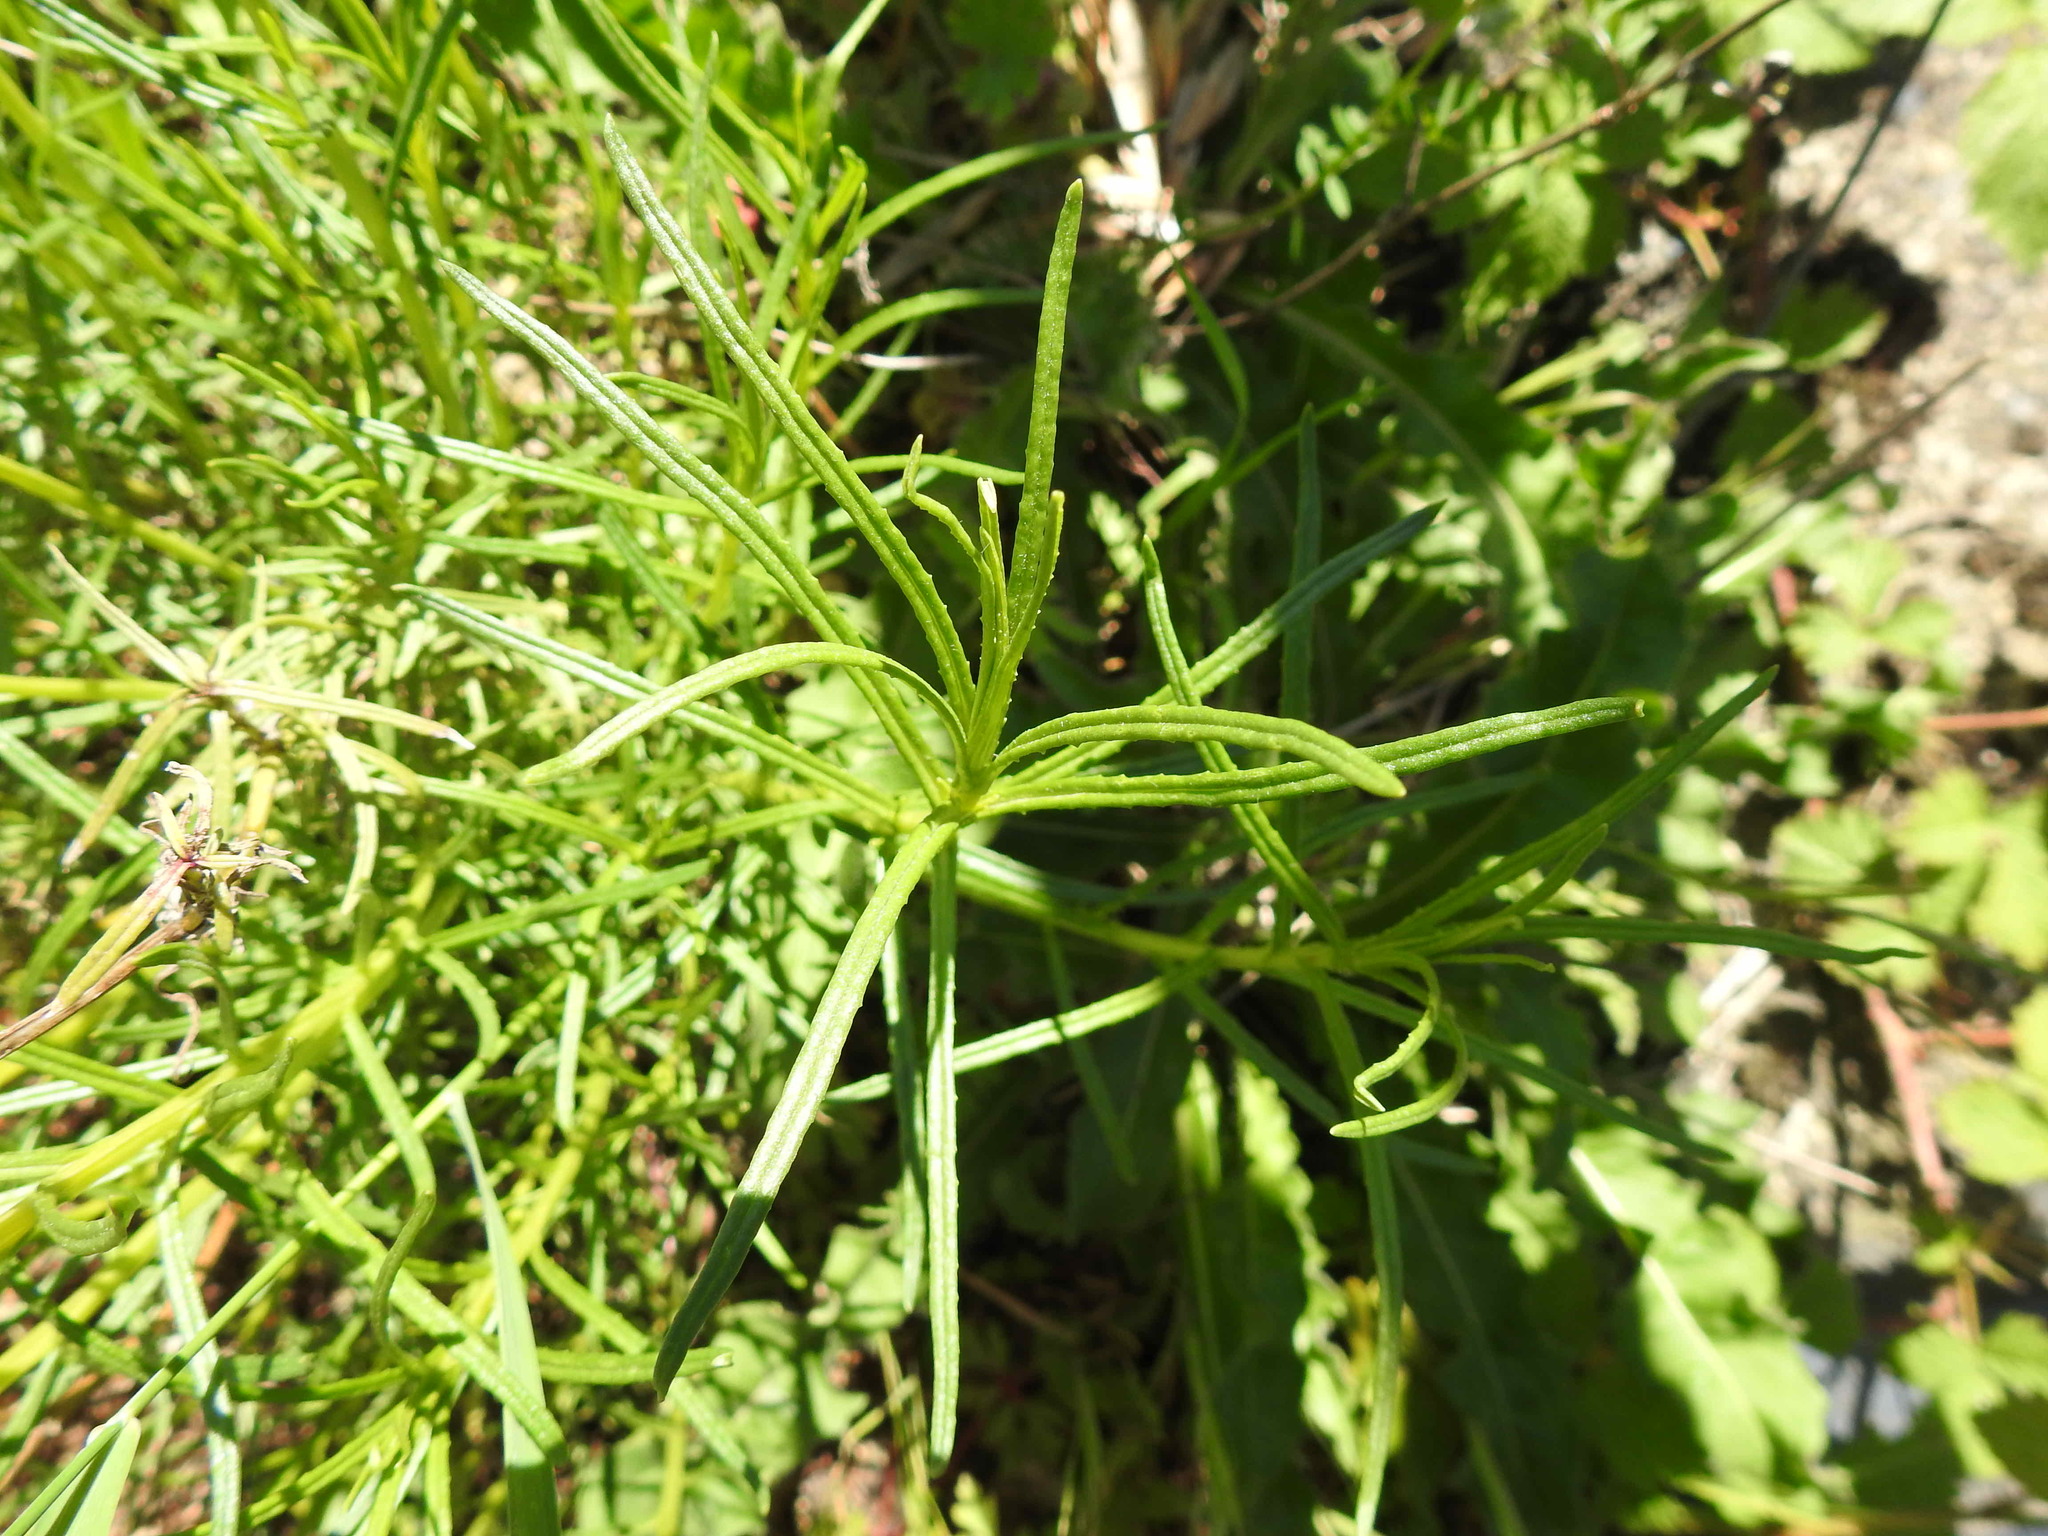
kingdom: Plantae
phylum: Tracheophyta
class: Magnoliopsida
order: Asterales
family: Asteraceae
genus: Senecio
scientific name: Senecio inaequidens
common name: Narrow-leaved ragwort
